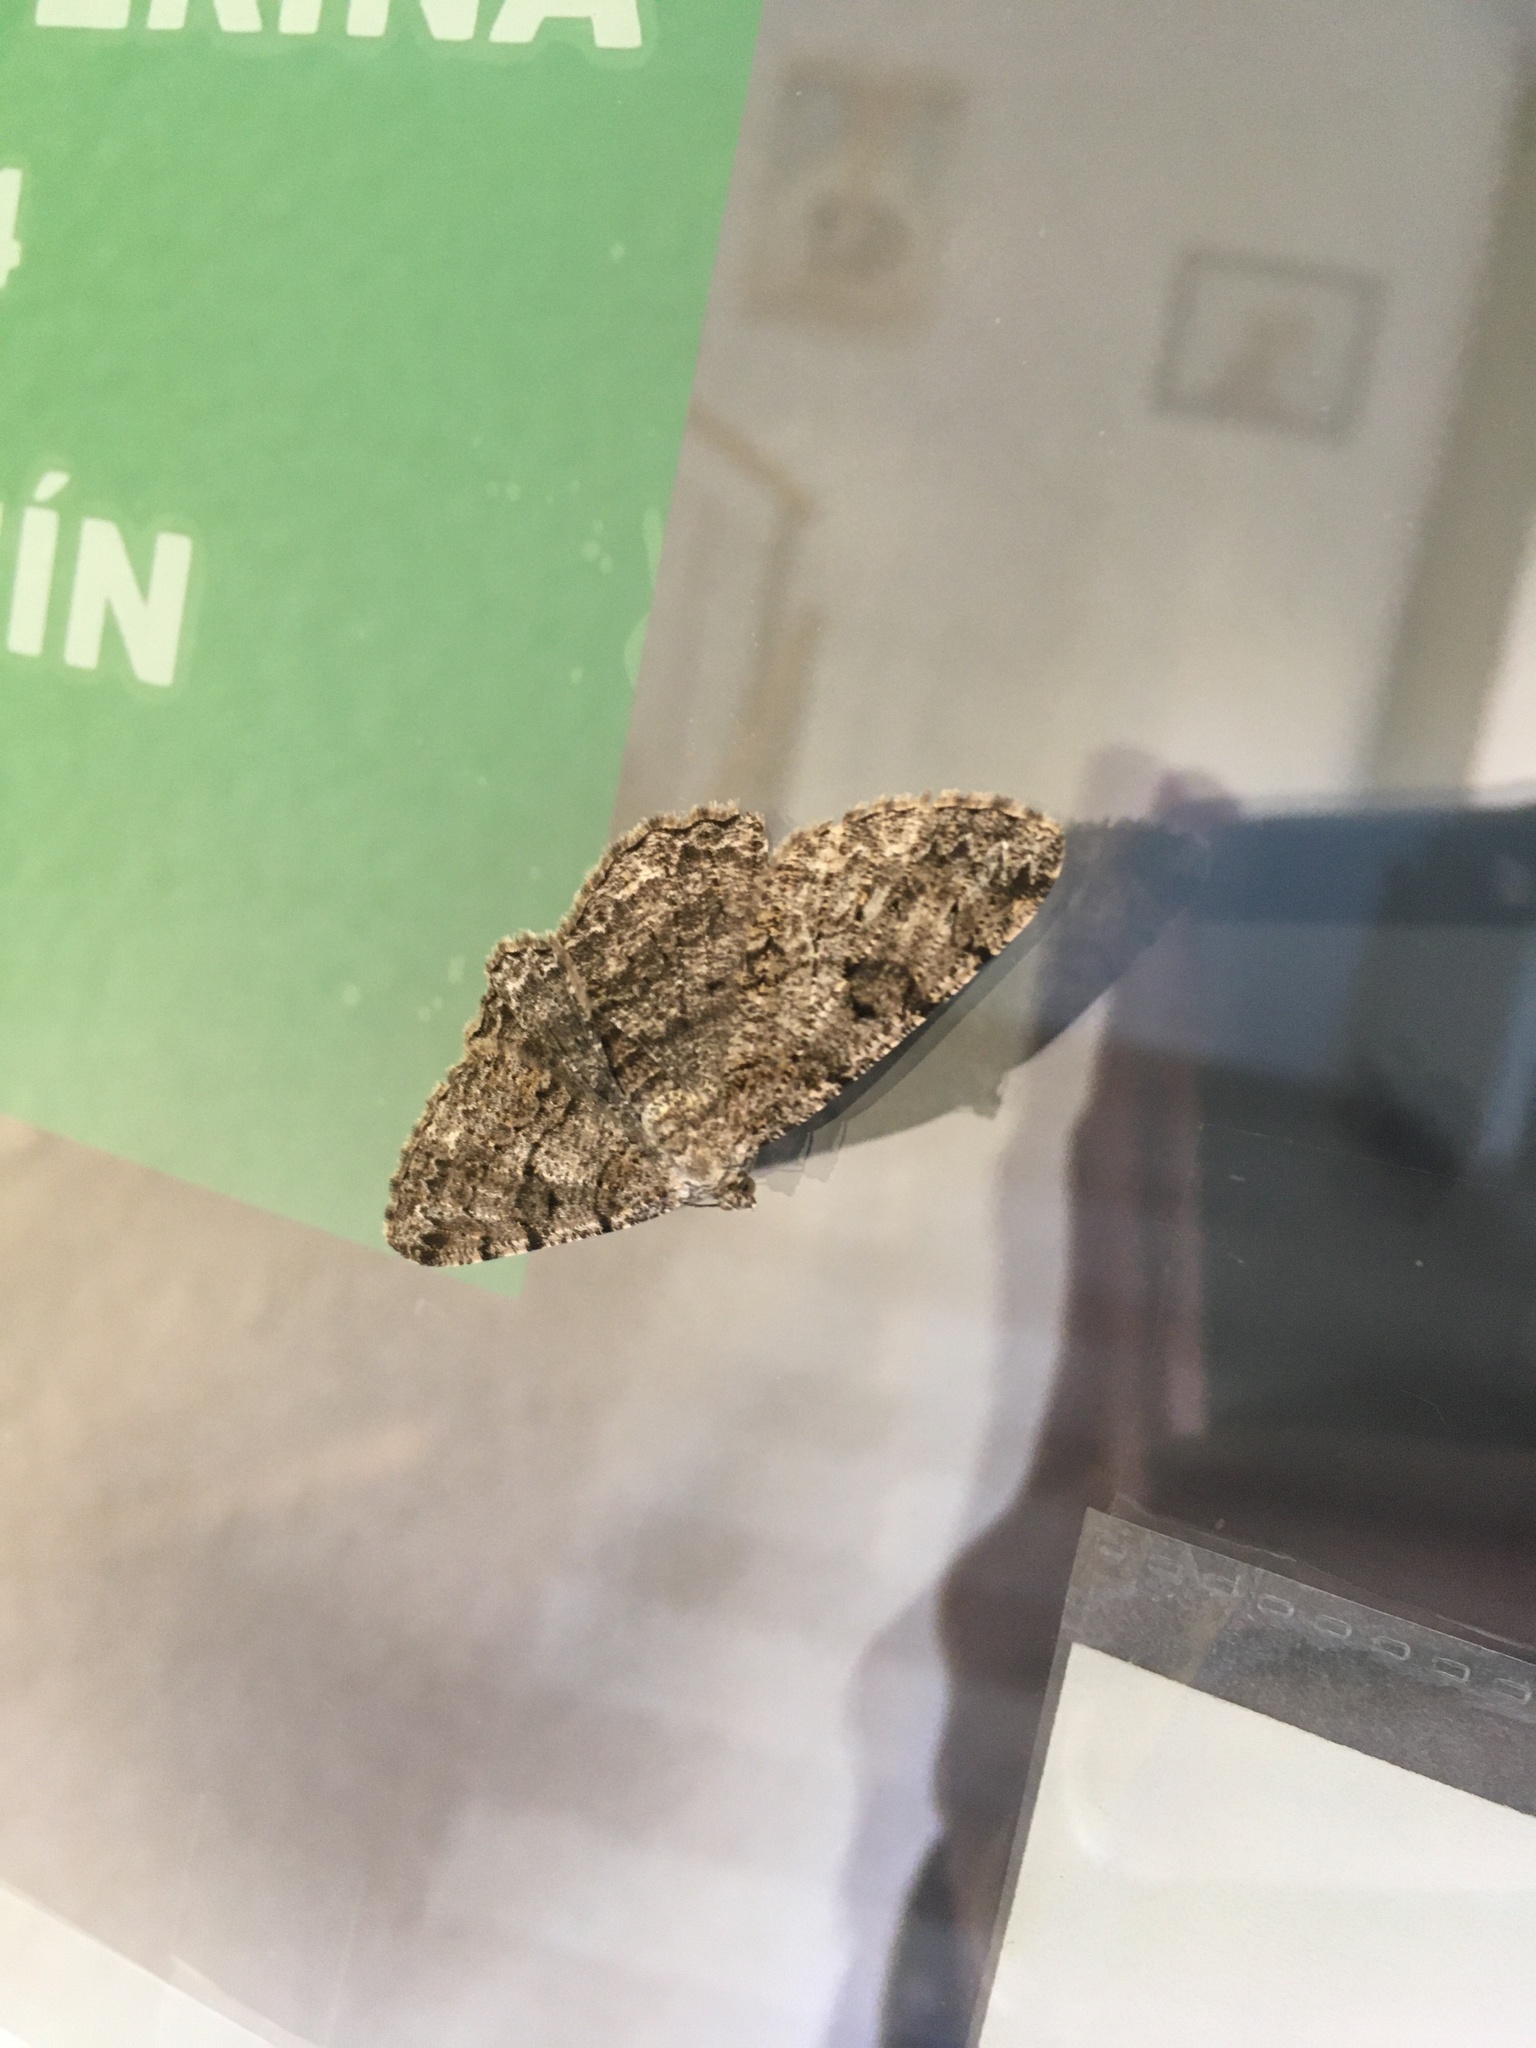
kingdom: Animalia
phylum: Arthropoda
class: Insecta
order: Lepidoptera
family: Geometridae
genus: Peribatodes
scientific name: Peribatodes rhomboidaria
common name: Willow beauty
